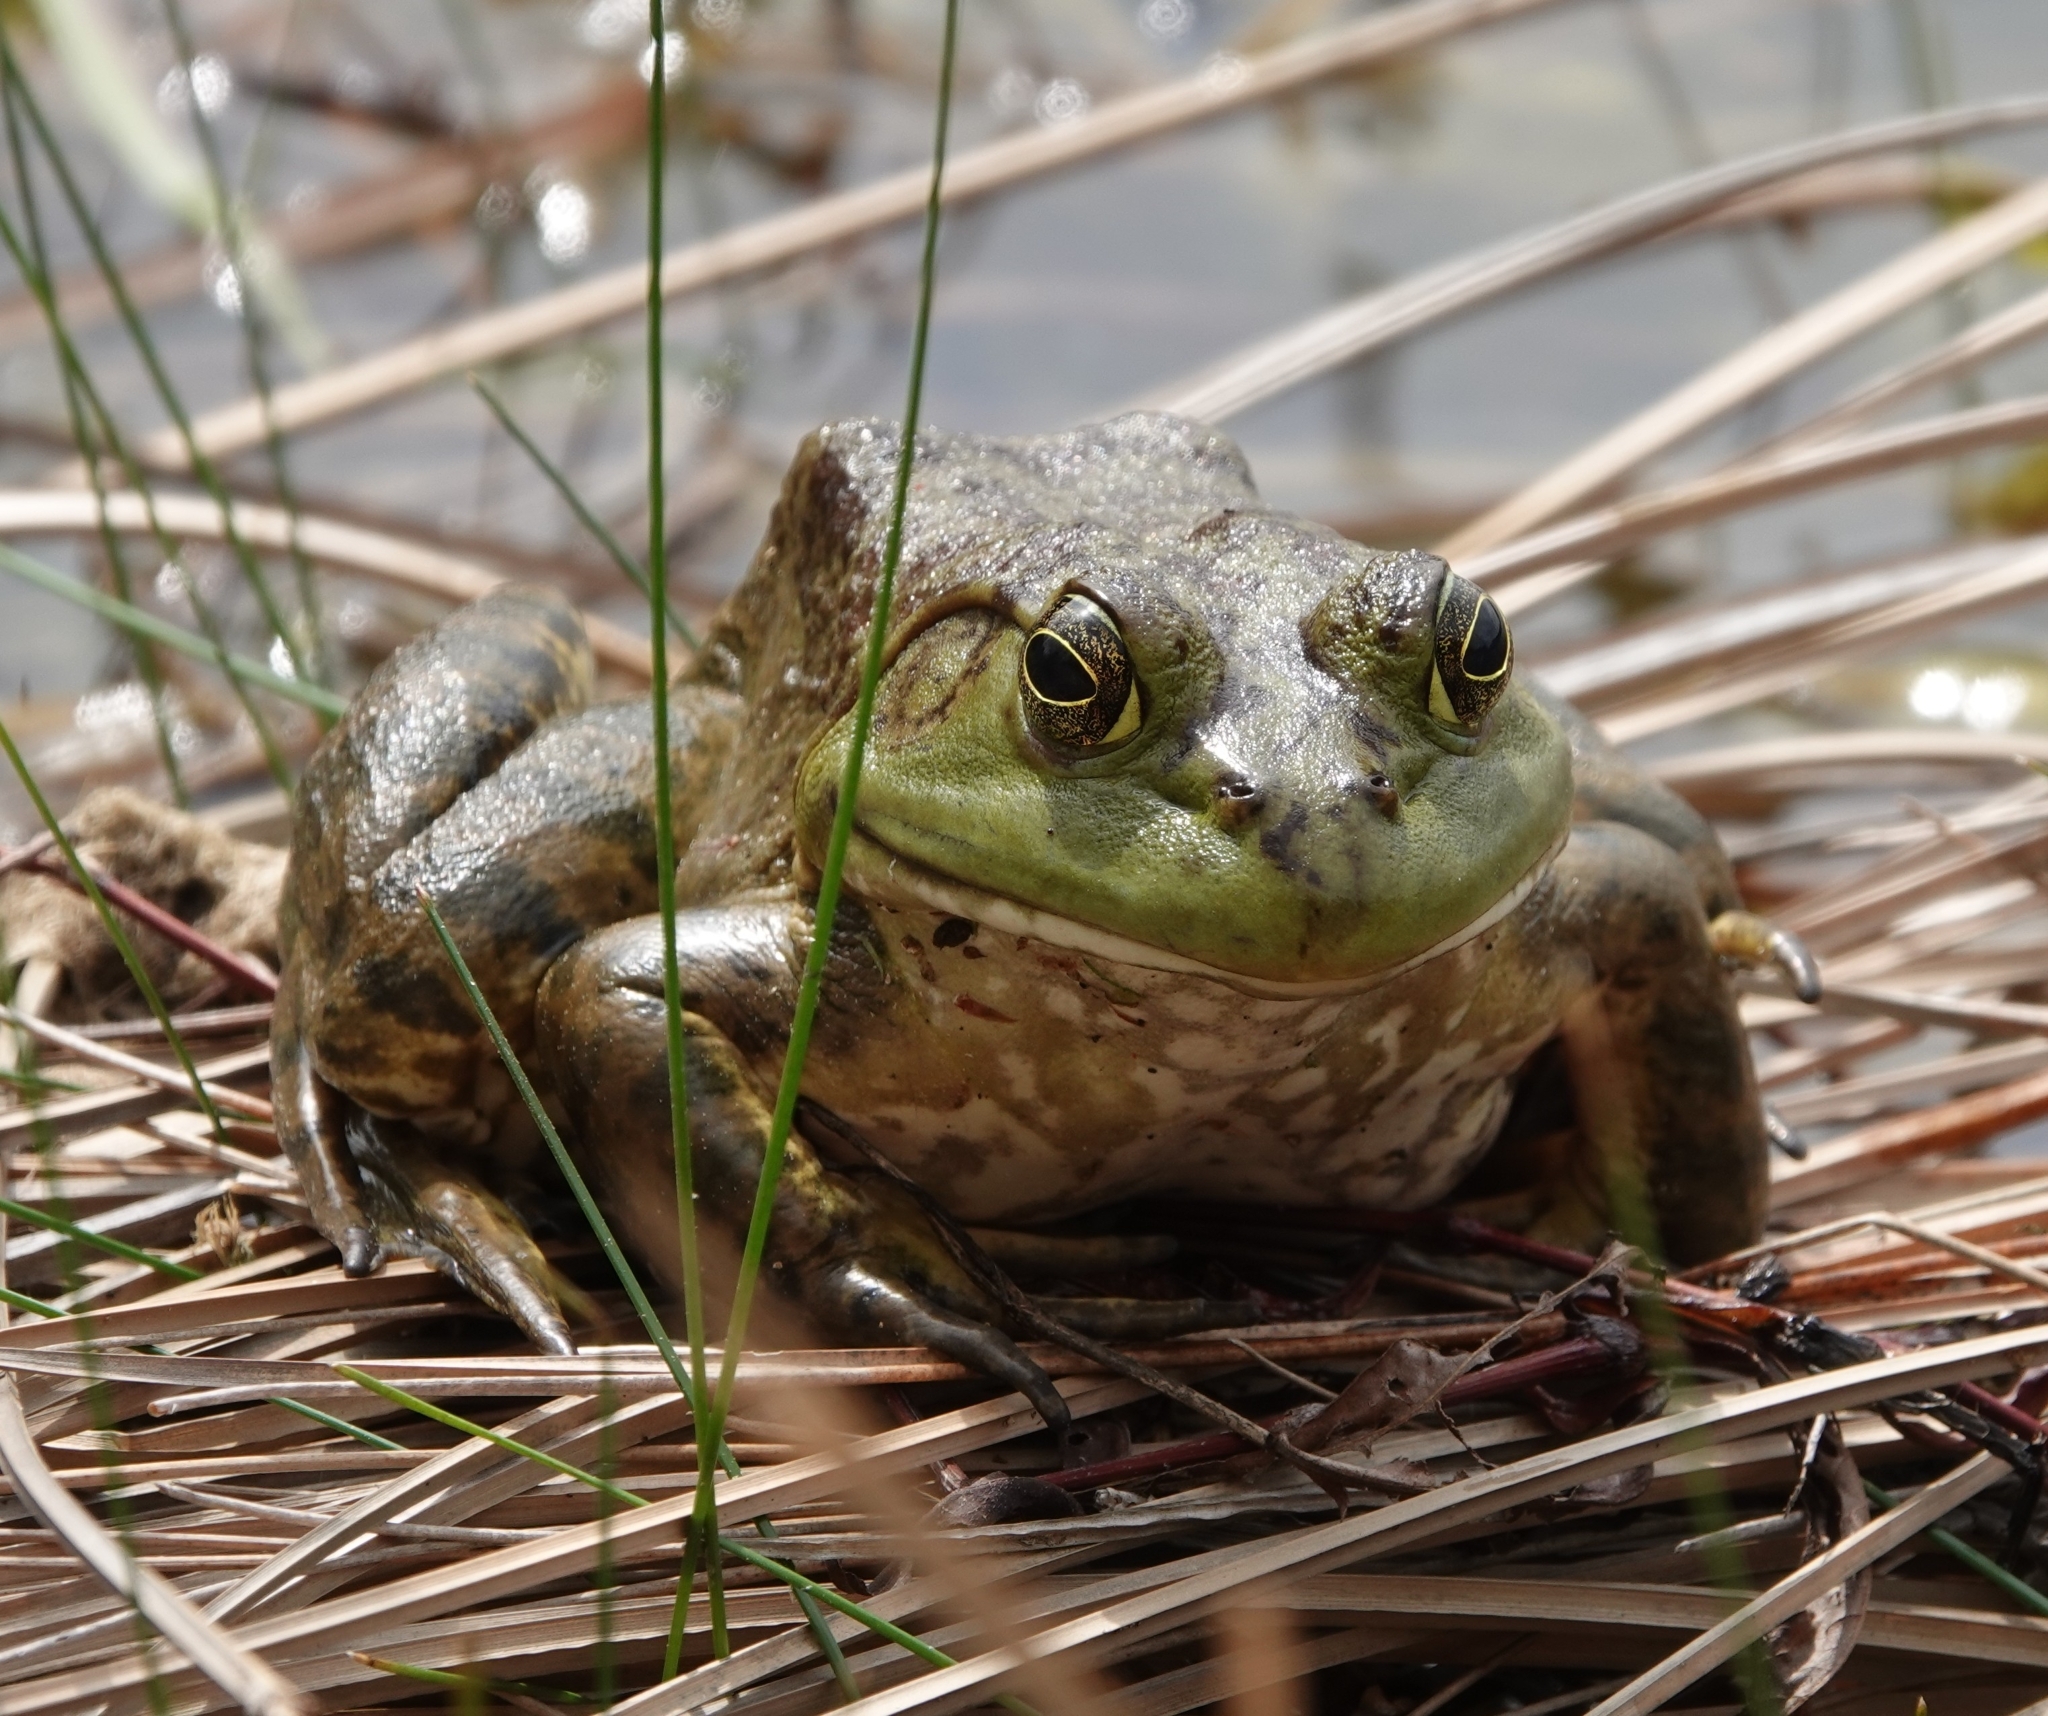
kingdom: Animalia
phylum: Chordata
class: Amphibia
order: Anura
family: Ranidae
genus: Lithobates
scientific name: Lithobates catesbeianus
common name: American bullfrog
